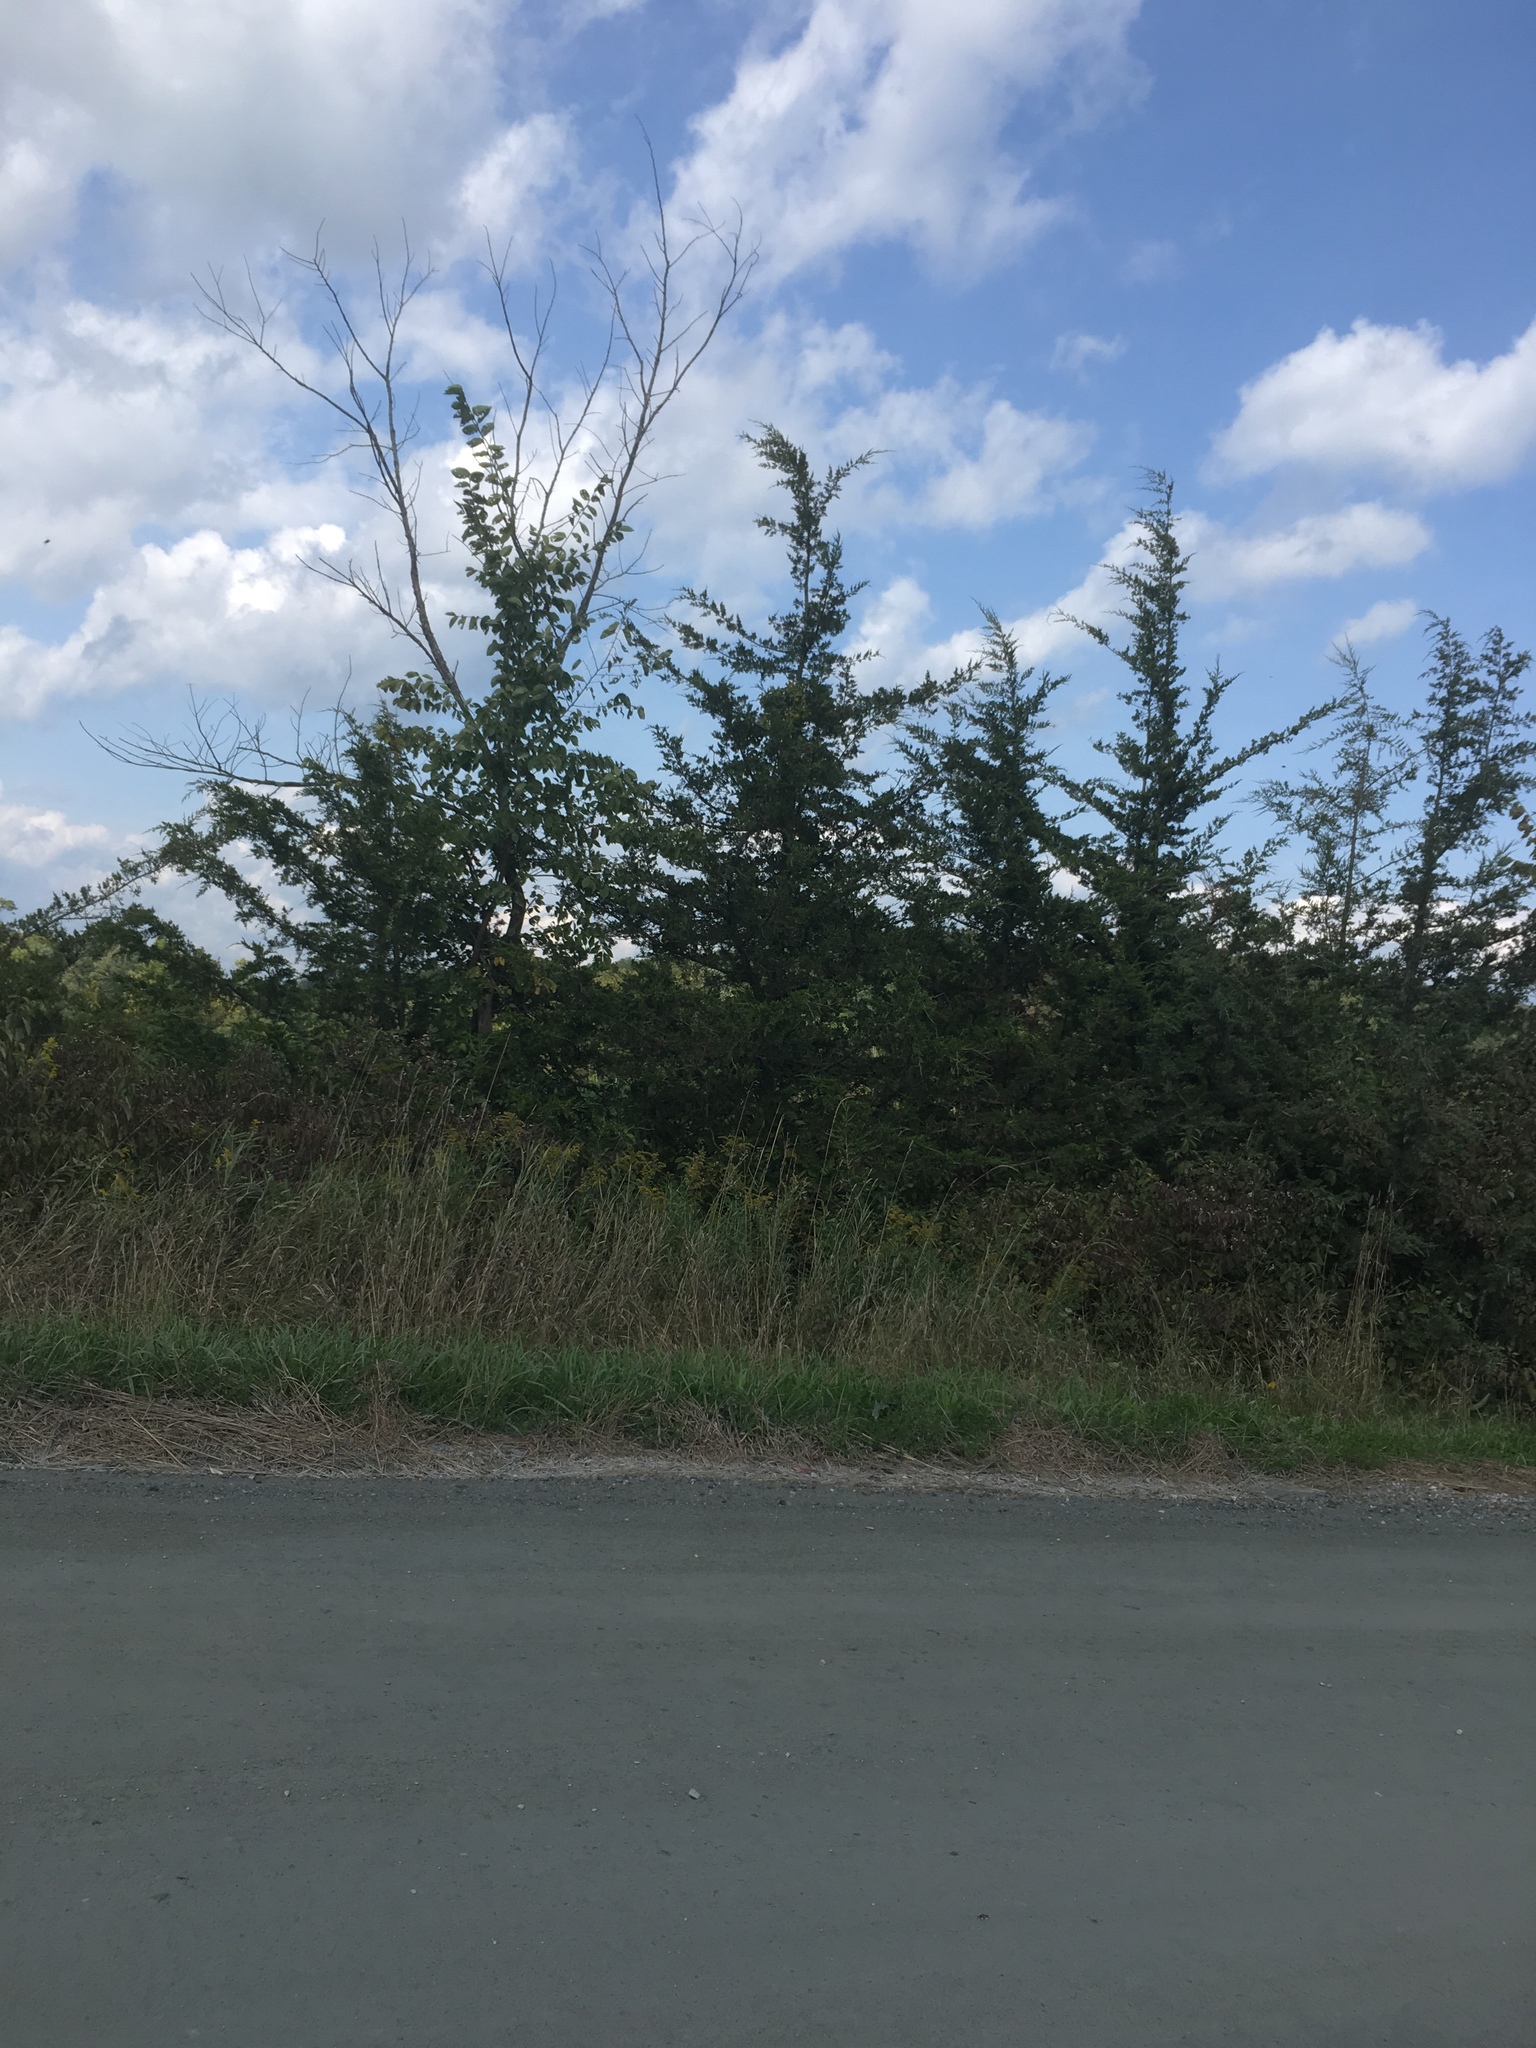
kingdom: Plantae
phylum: Tracheophyta
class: Pinopsida
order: Pinales
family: Cupressaceae
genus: Juniperus
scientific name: Juniperus virginiana
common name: Red juniper
